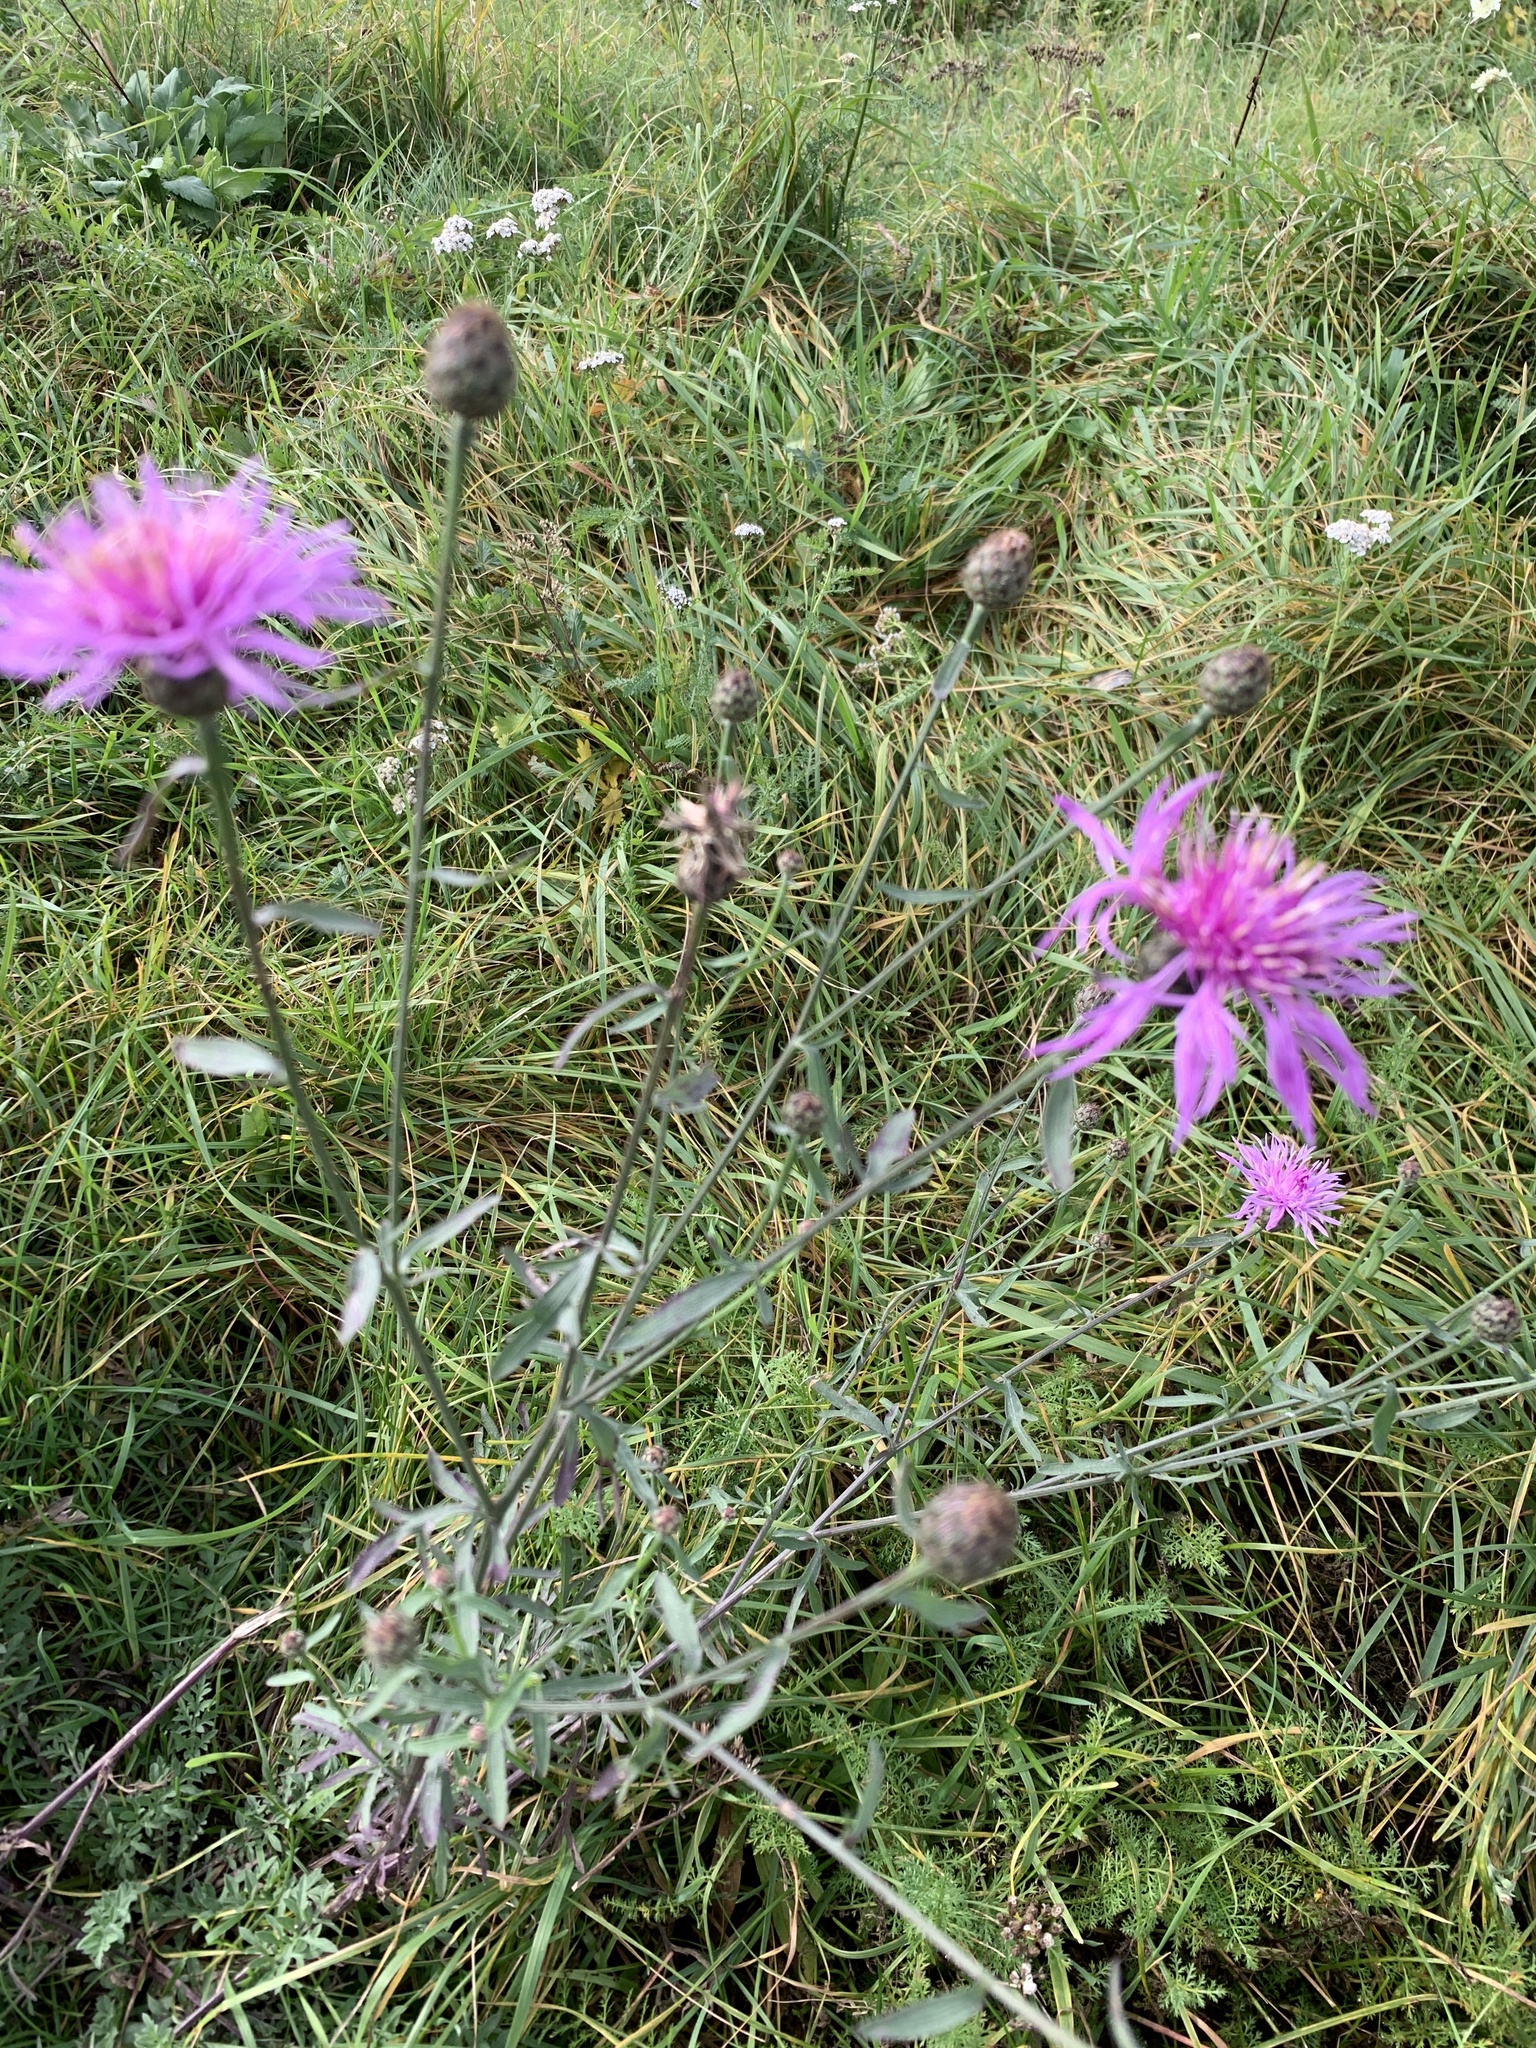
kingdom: Plantae
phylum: Tracheophyta
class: Magnoliopsida
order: Asterales
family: Asteraceae
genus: Centaurea
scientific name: Centaurea stoebe
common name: Spotted knapweed
